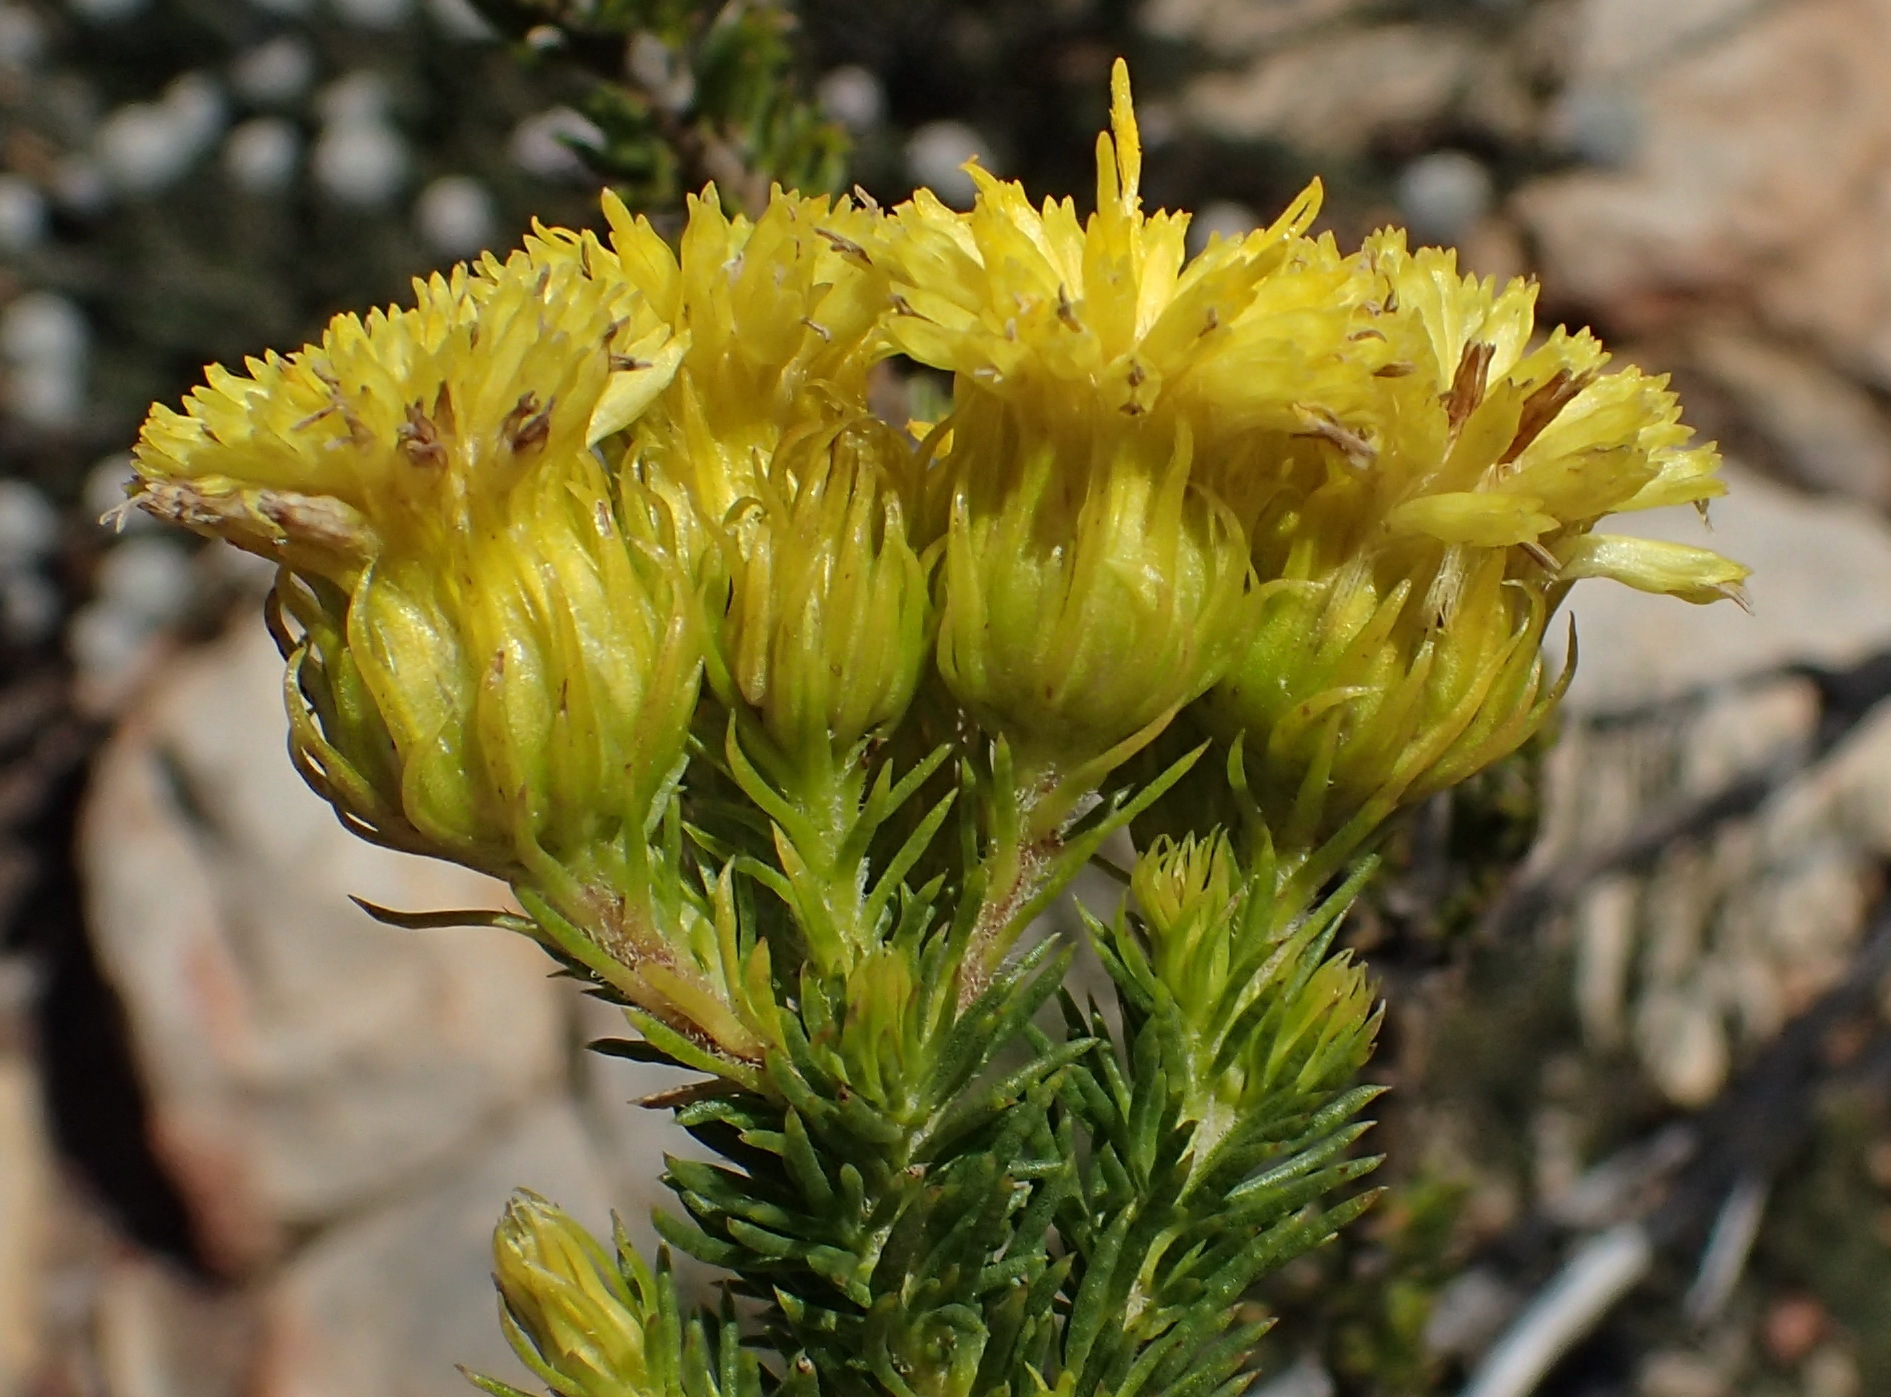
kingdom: Plantae
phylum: Tracheophyta
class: Magnoliopsida
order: Asterales
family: Asteraceae
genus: Pteronia
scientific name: Pteronia camphorata
